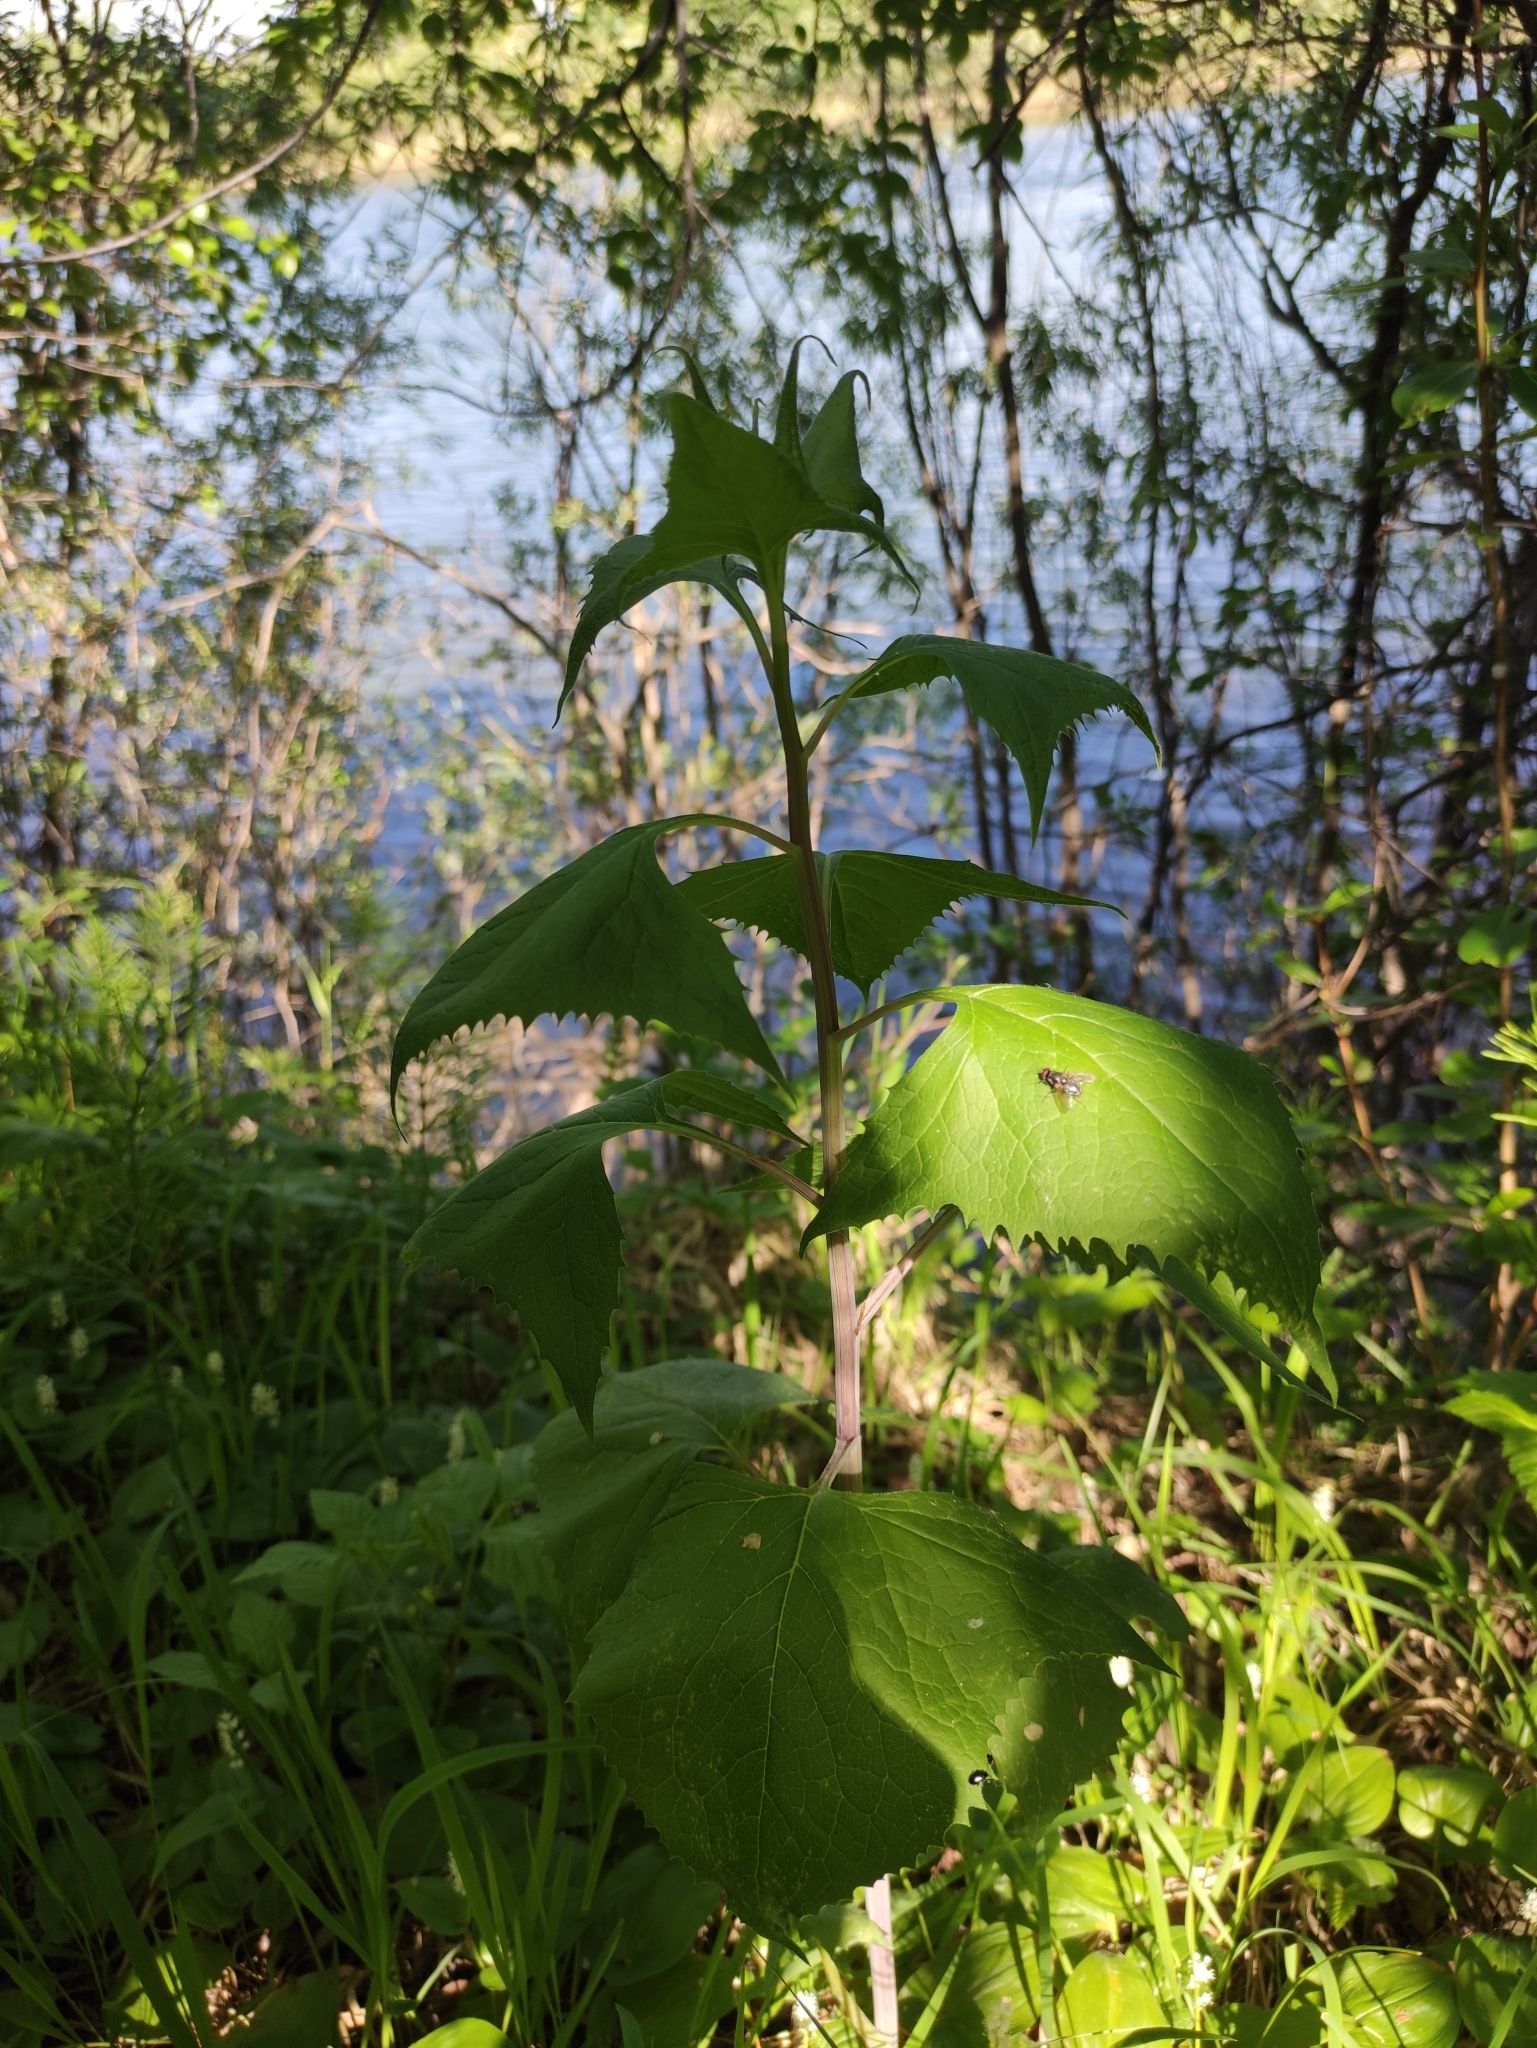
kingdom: Plantae
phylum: Tracheophyta
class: Magnoliopsida
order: Asterales
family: Asteraceae
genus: Parasenecio
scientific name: Parasenecio hastatus
